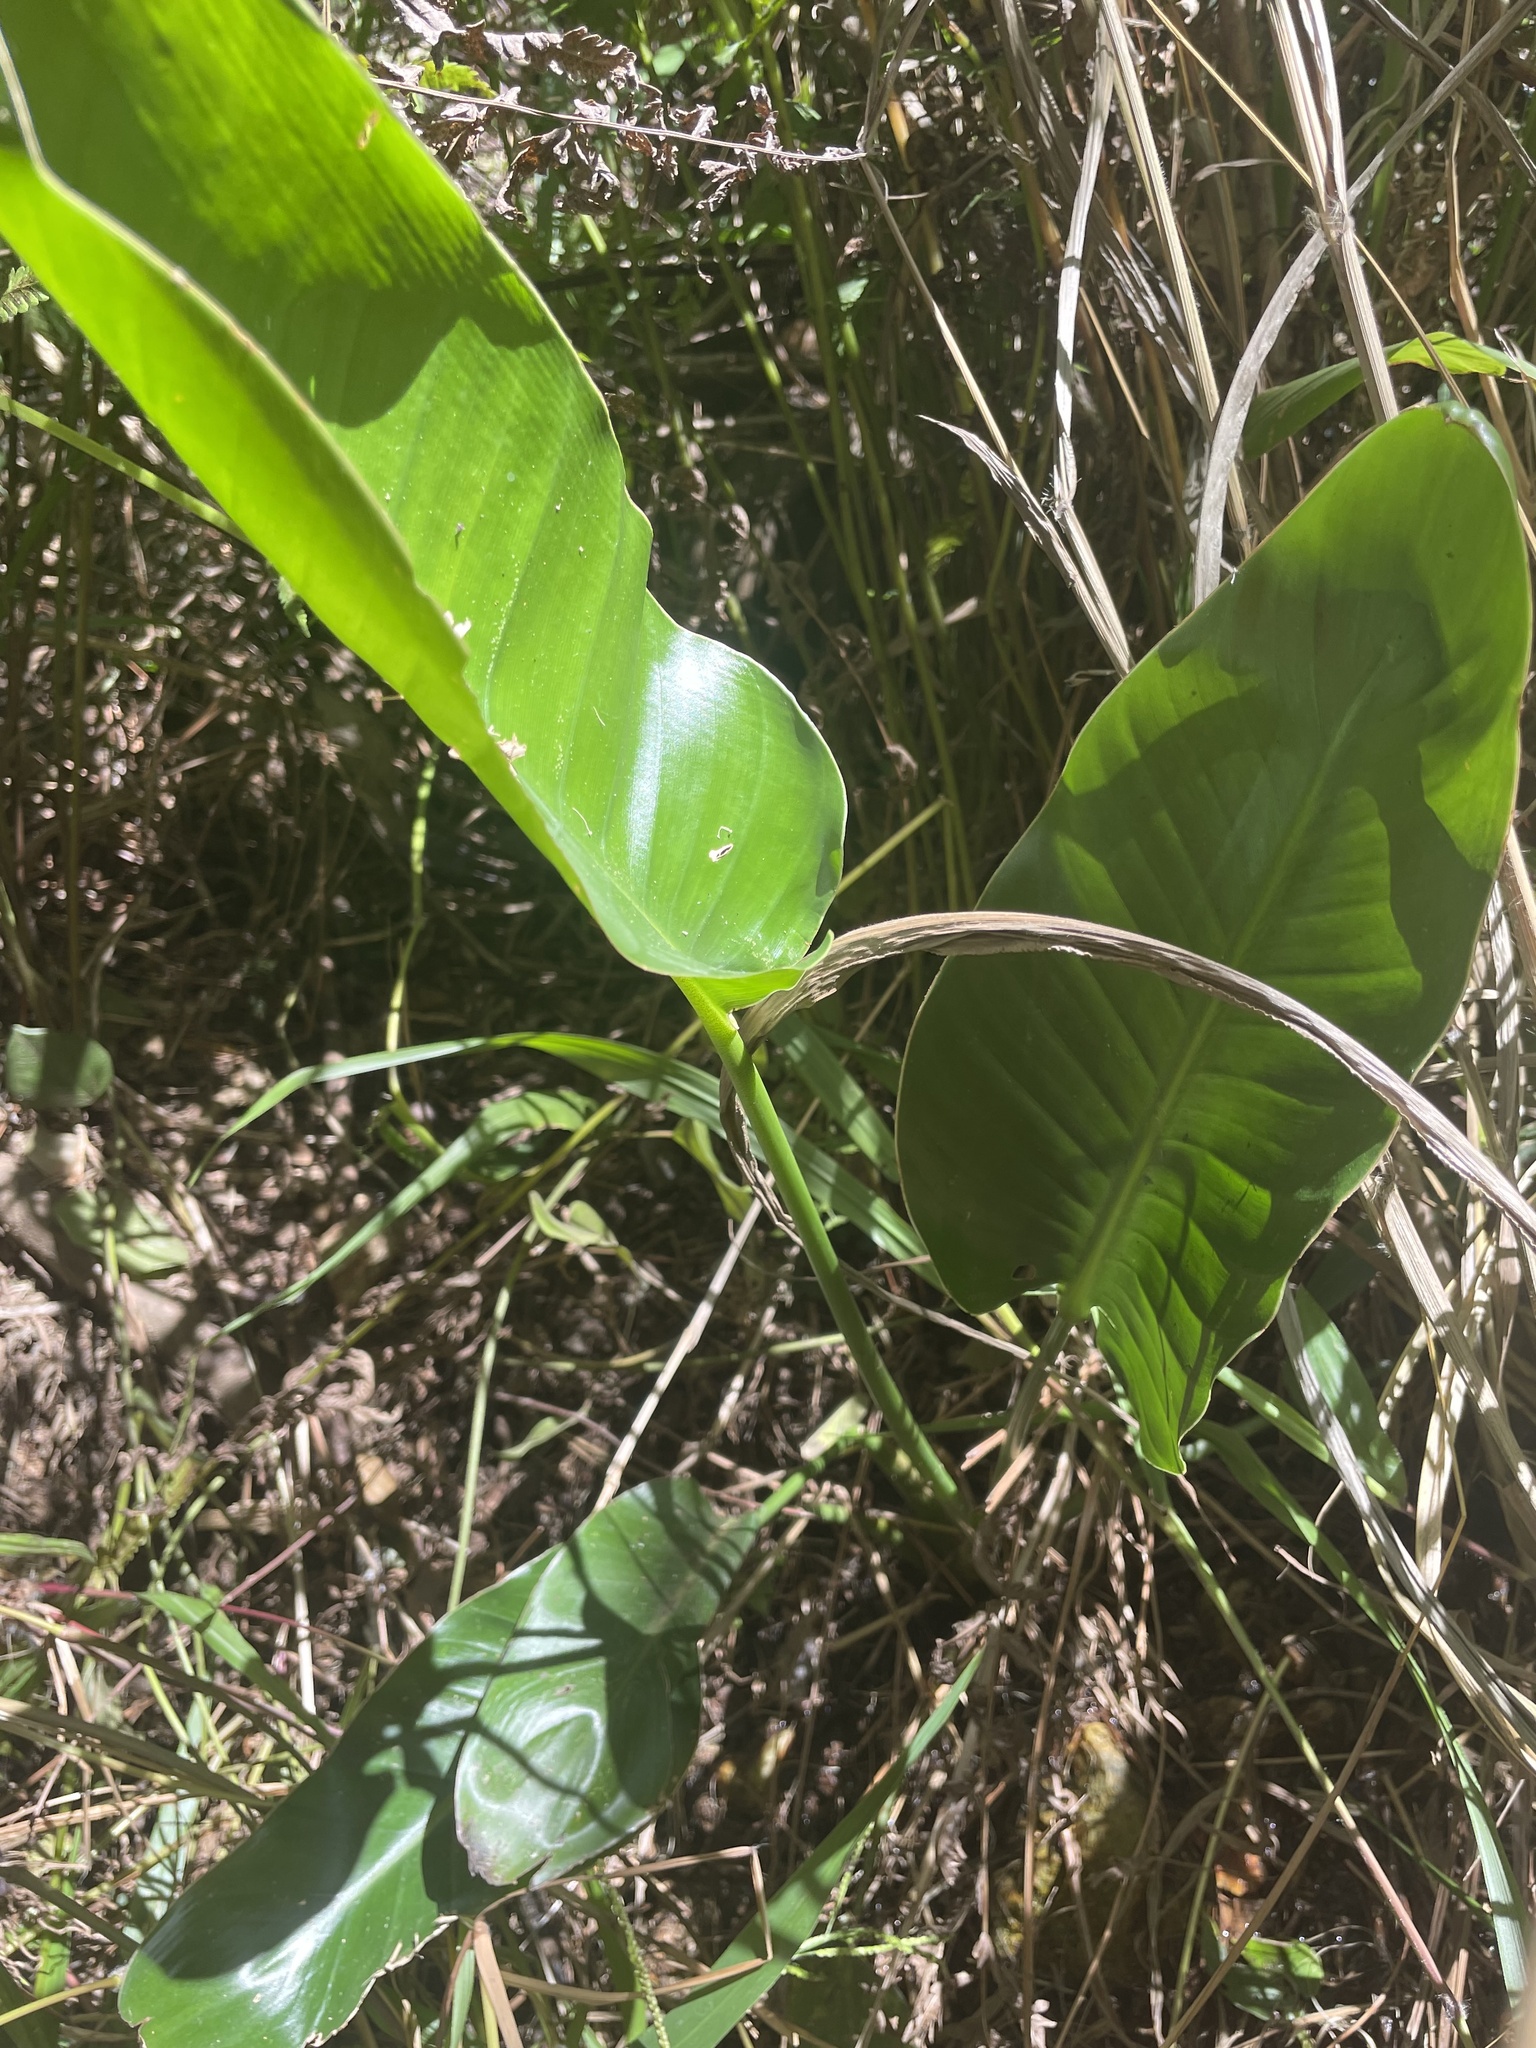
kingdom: Plantae
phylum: Tracheophyta
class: Liliopsida
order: Zingiberales
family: Strelitziaceae
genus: Strelitzia
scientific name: Strelitzia reginae
